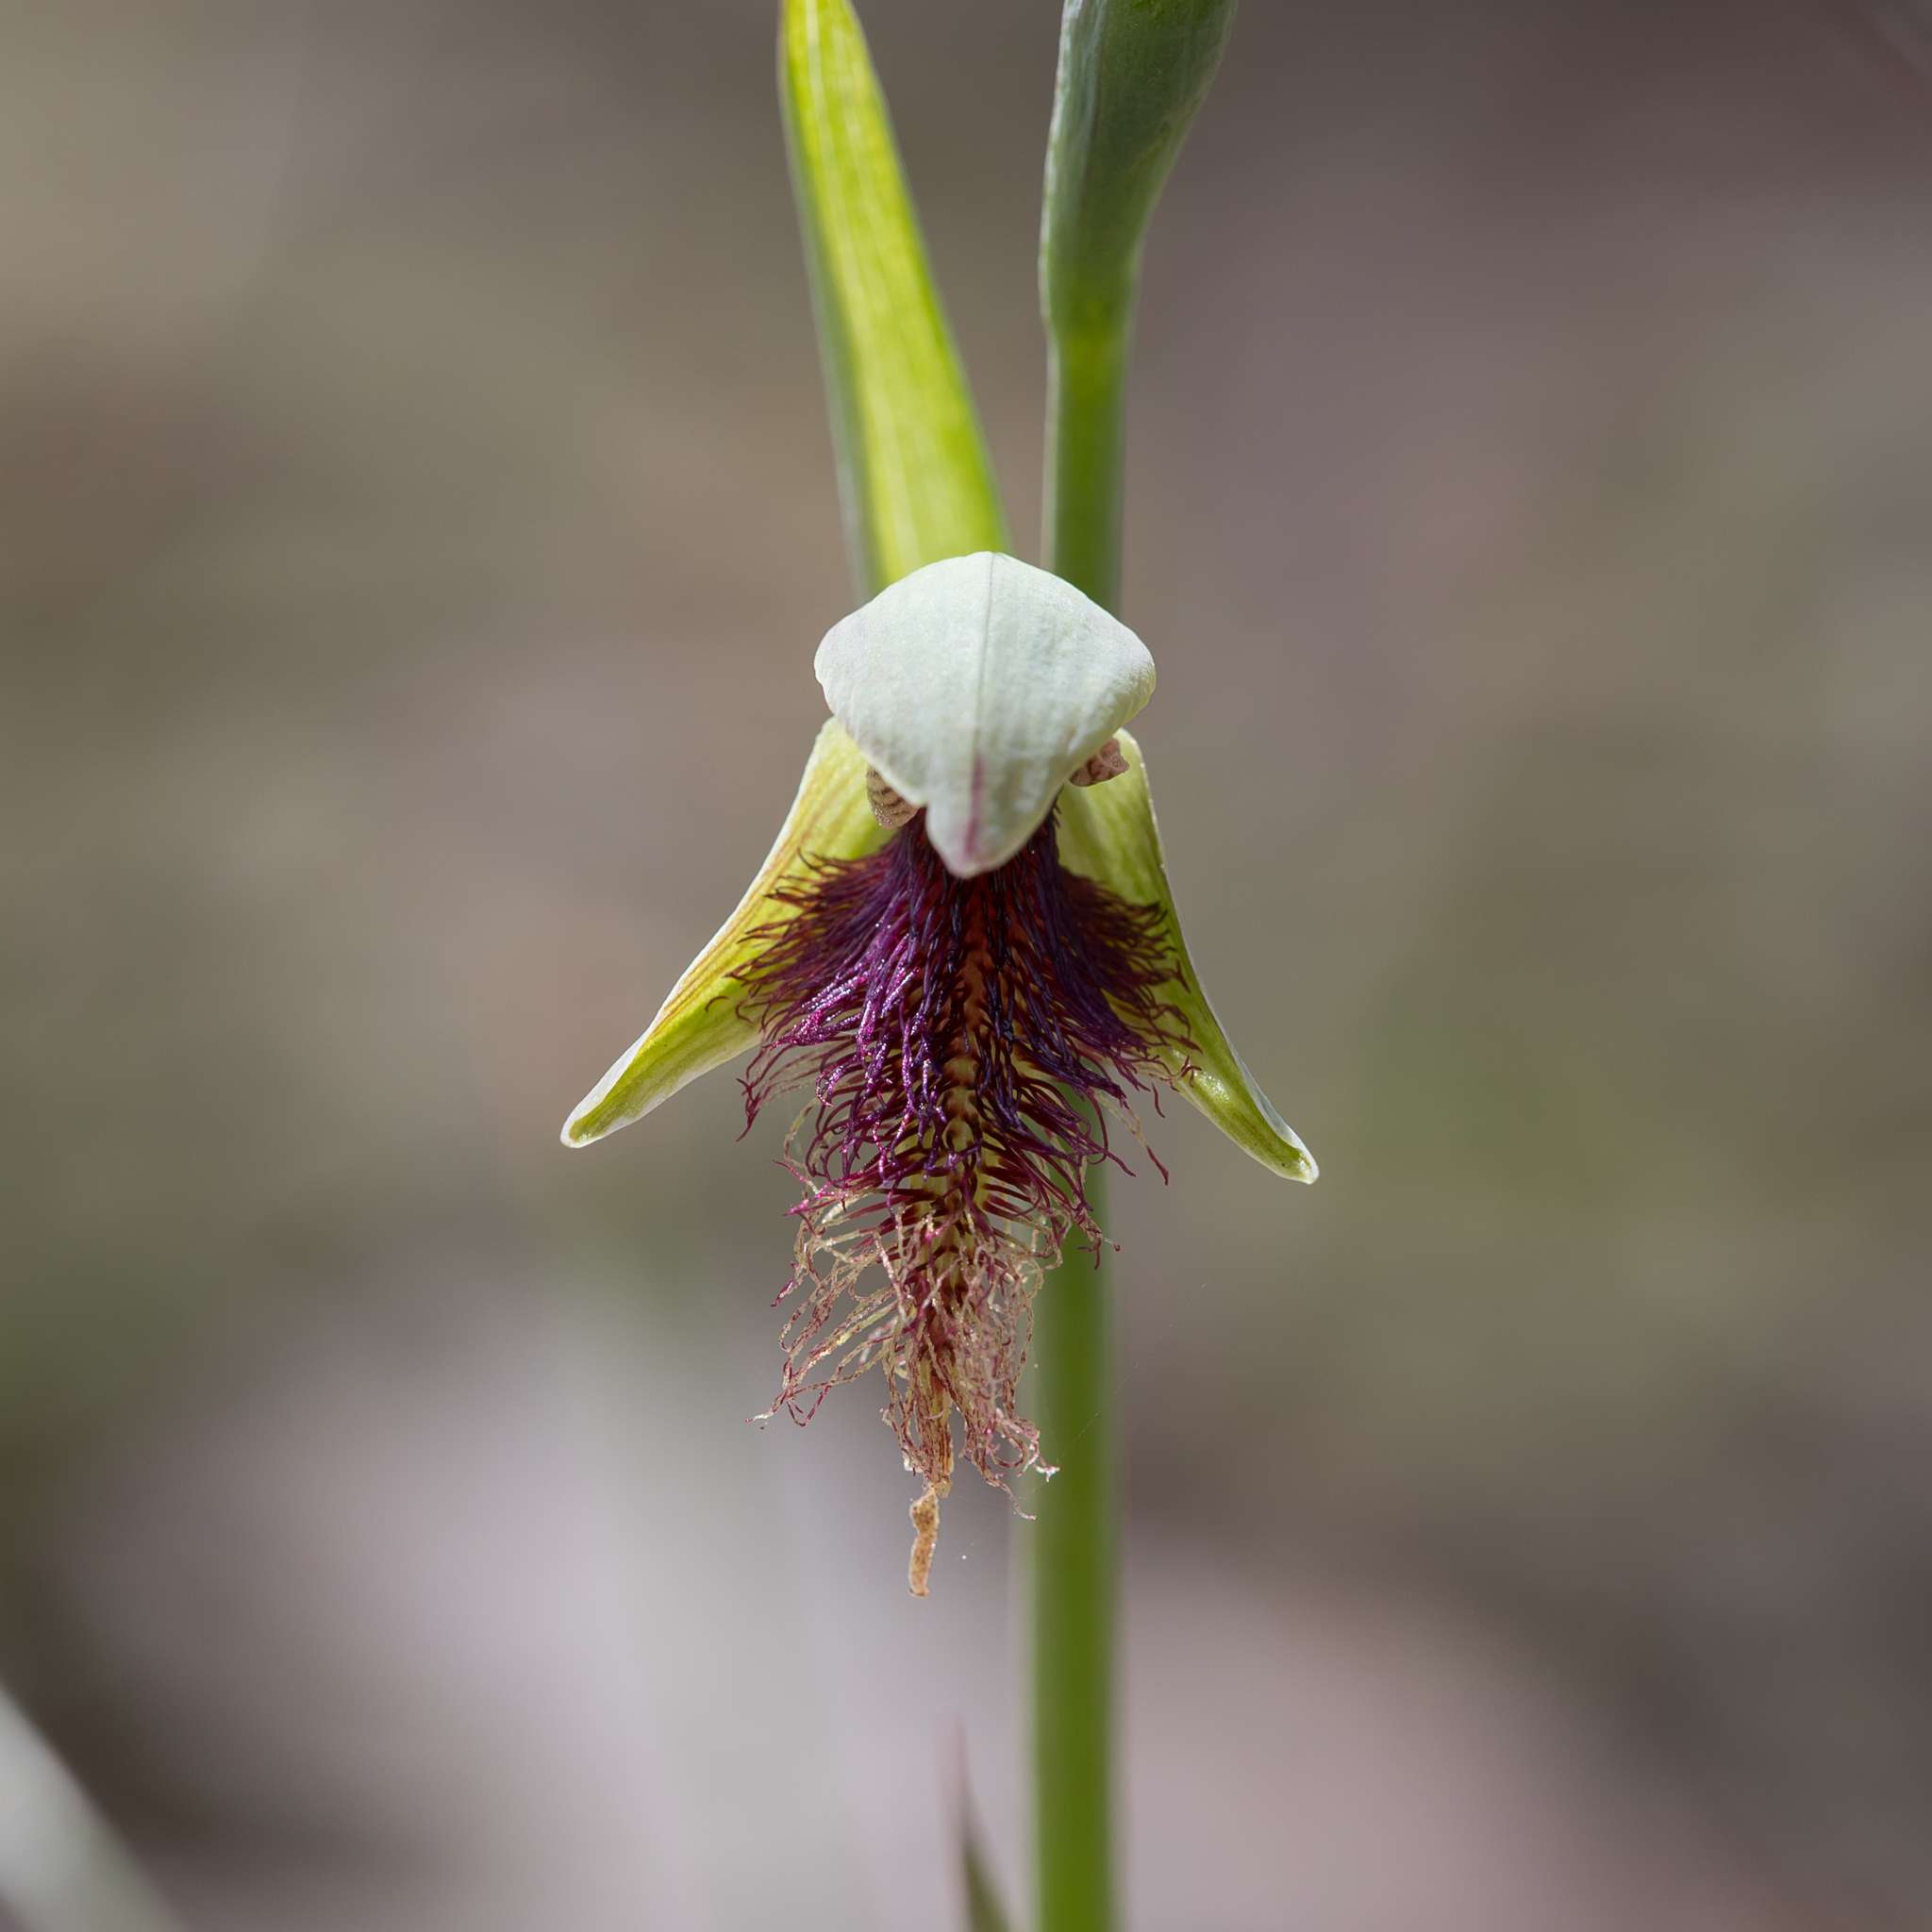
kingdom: Plantae
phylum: Tracheophyta
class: Liliopsida
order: Asparagales
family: Orchidaceae
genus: Calochilus
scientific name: Calochilus robertsonii
